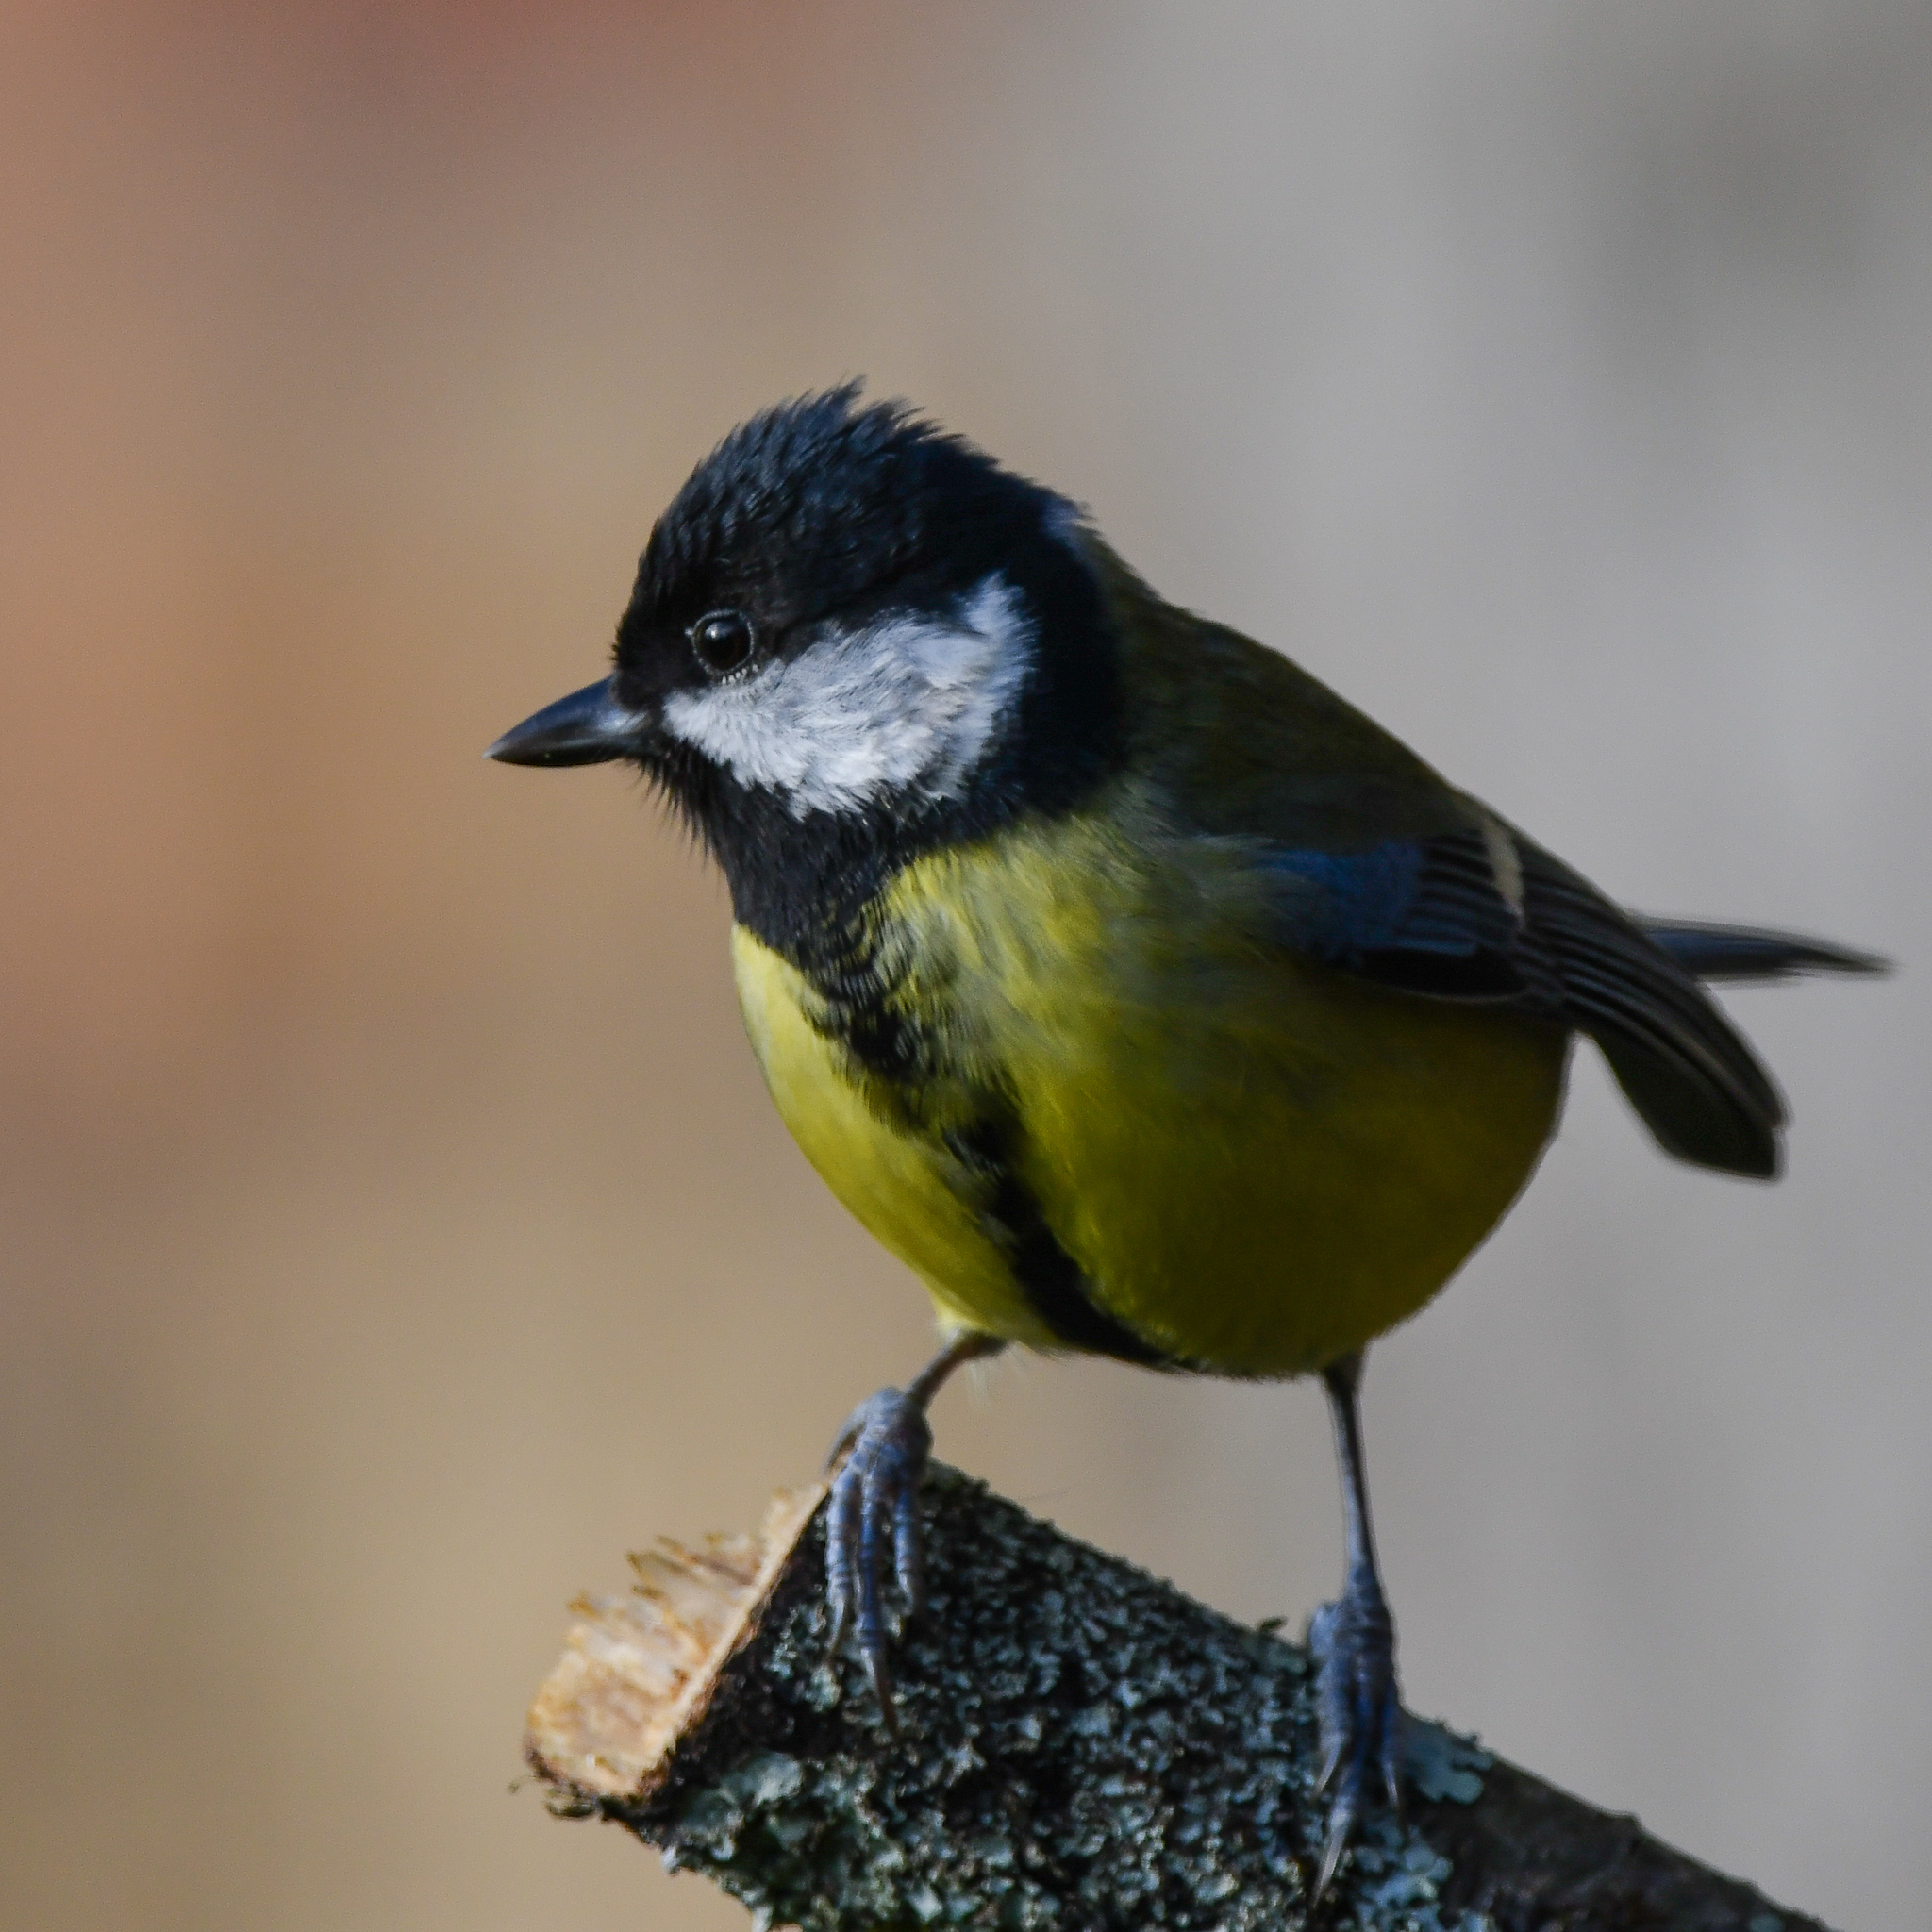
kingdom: Animalia
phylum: Chordata
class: Aves
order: Passeriformes
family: Paridae
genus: Parus
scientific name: Parus major
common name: Great tit
